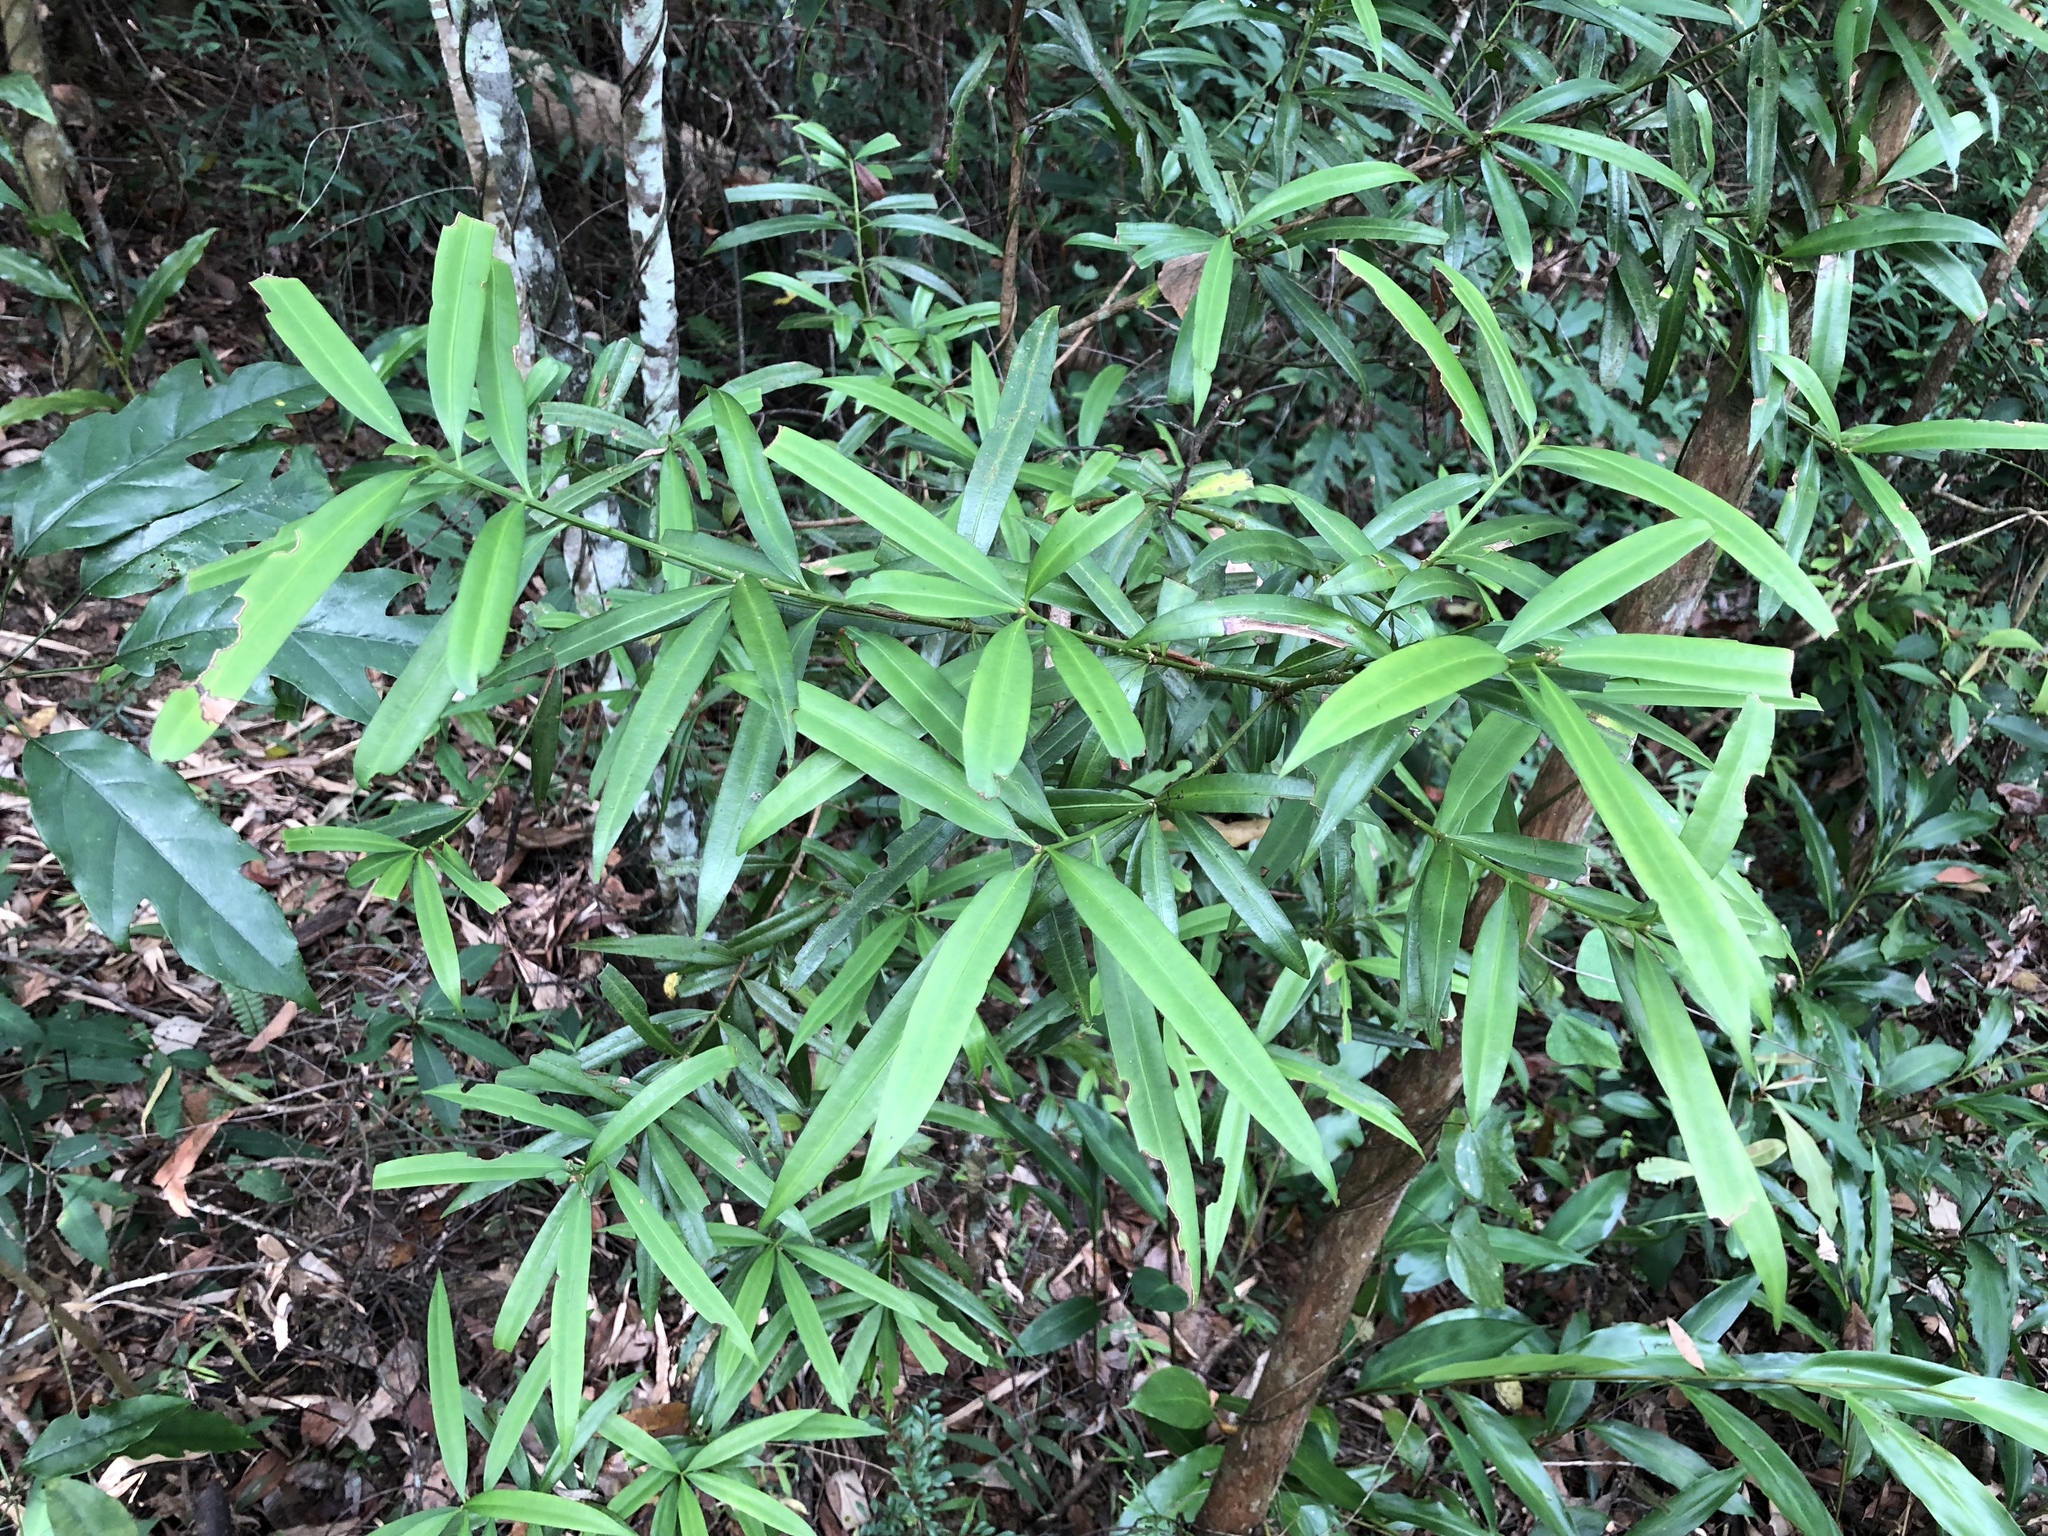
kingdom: Plantae
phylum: Tracheophyta
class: Pinopsida
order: Pinales
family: Podocarpaceae
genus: Podocarpus
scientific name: Podocarpus nakaii
